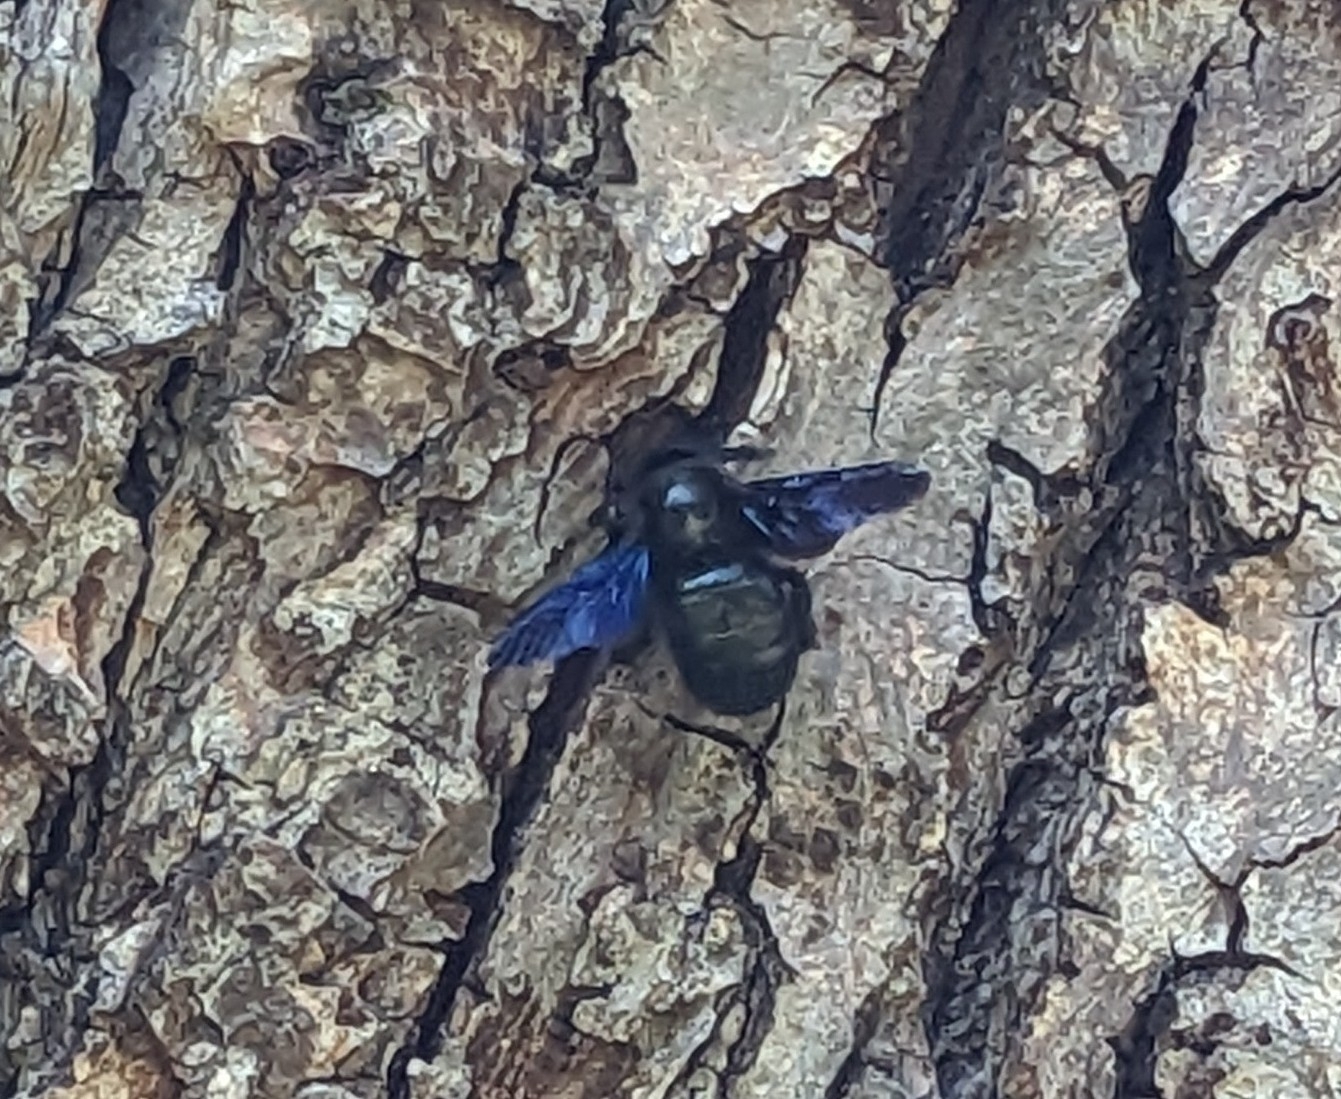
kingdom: Animalia
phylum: Arthropoda
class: Insecta
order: Hymenoptera
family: Apidae
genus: Xylocopa
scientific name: Xylocopa
